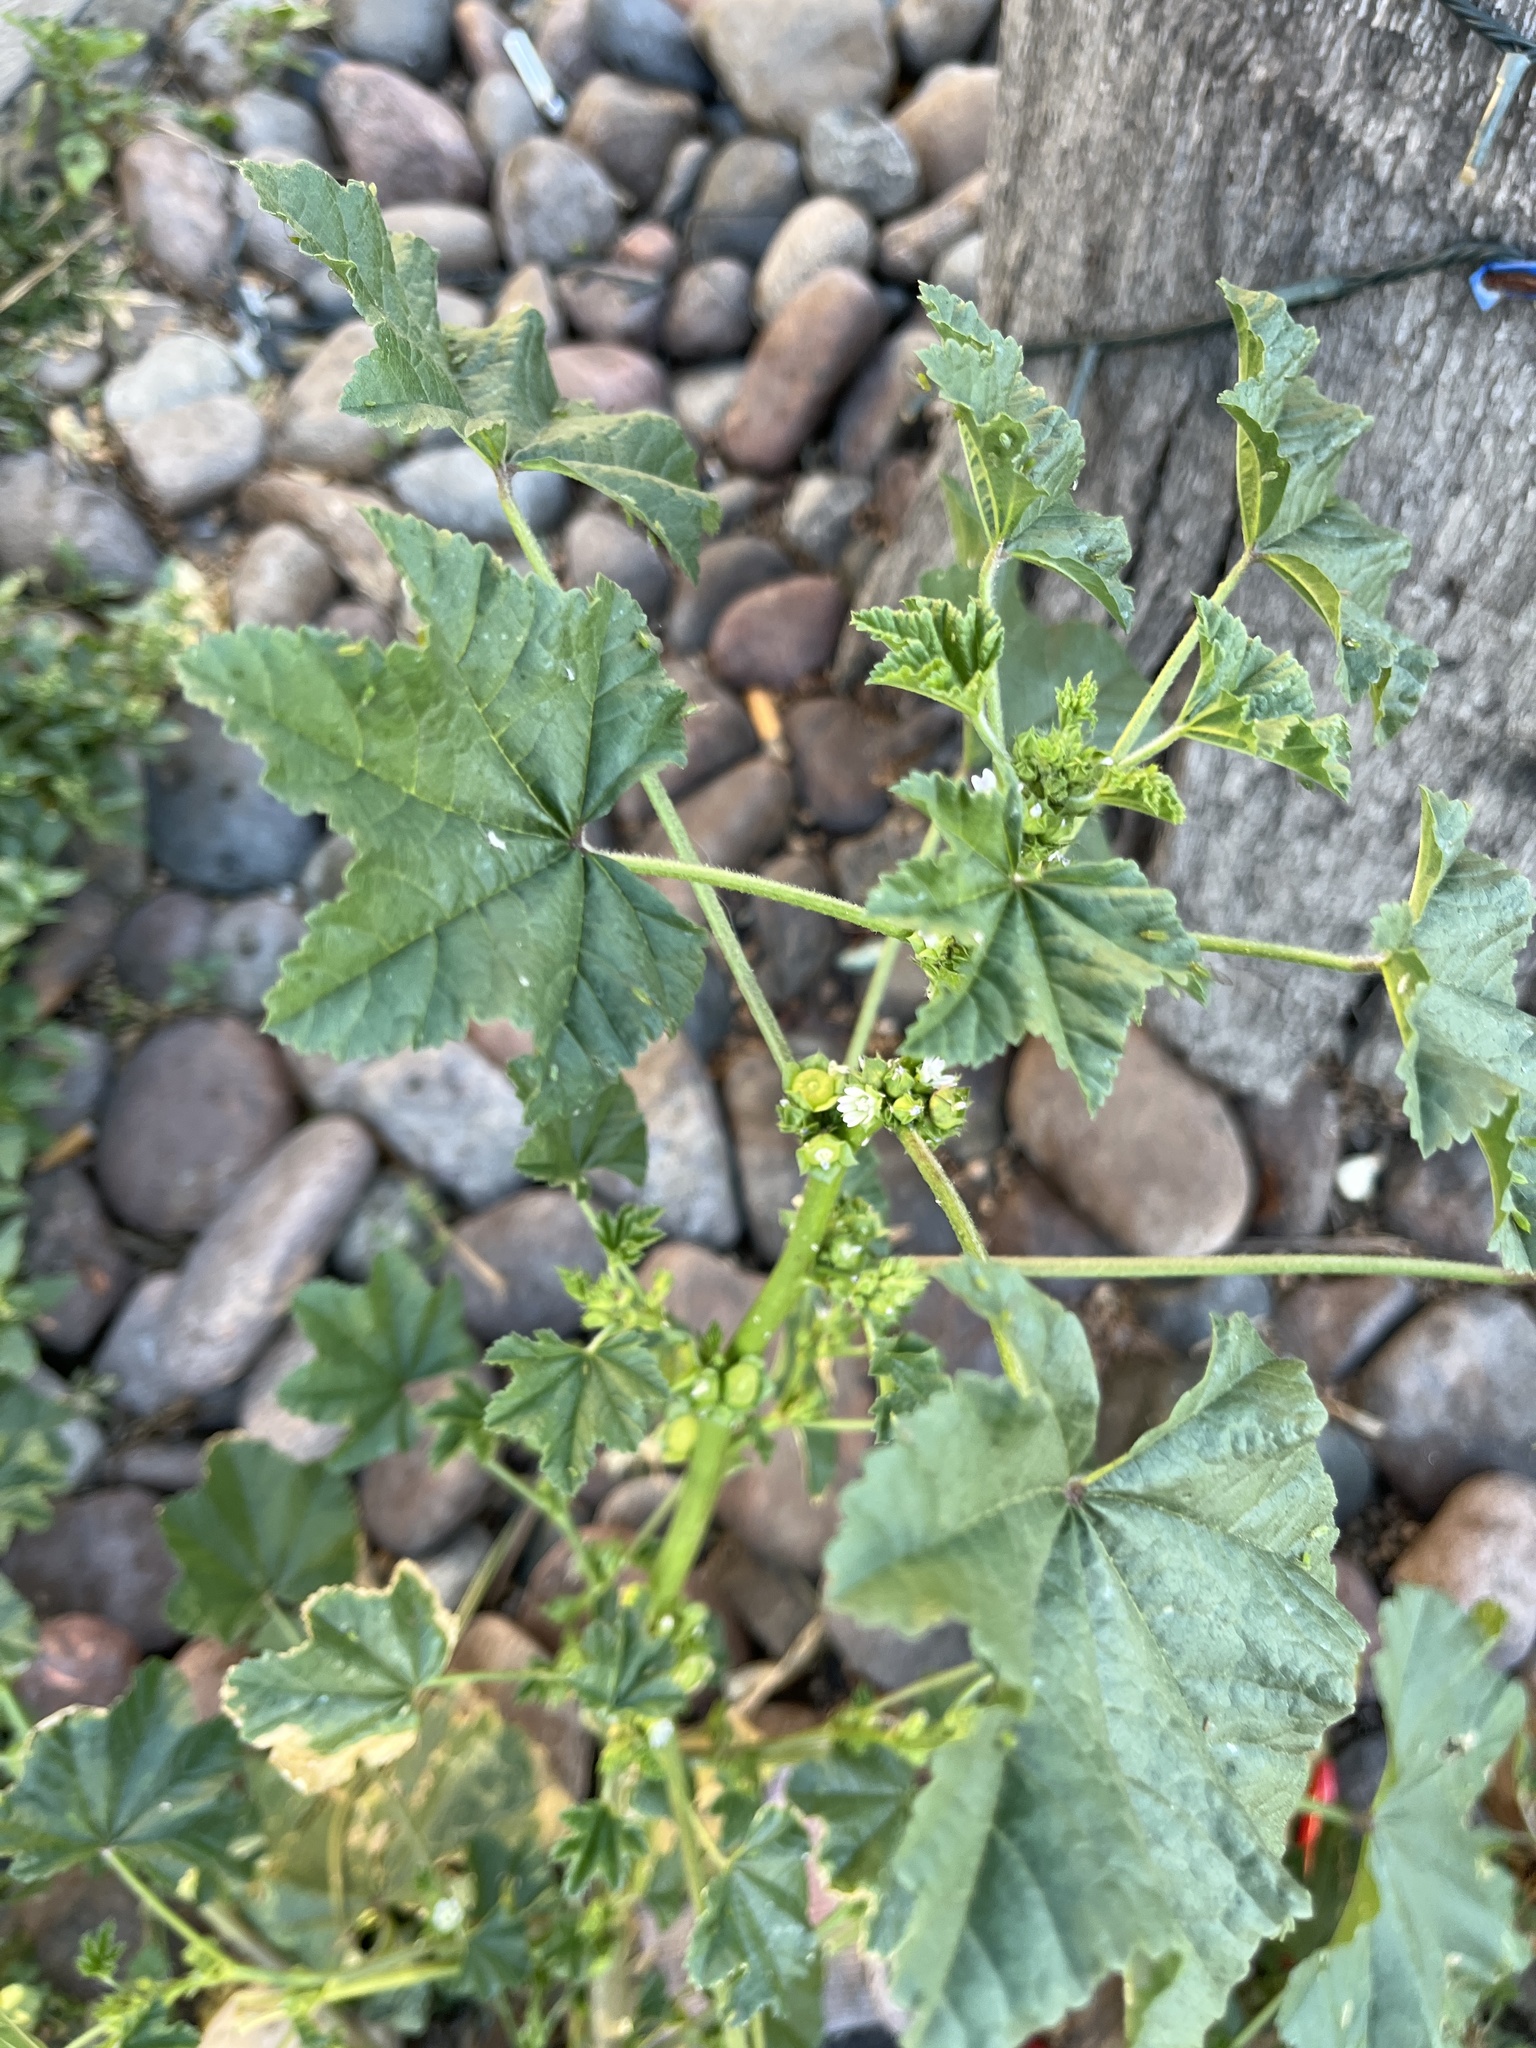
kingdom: Plantae
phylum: Tracheophyta
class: Magnoliopsida
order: Malvales
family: Malvaceae
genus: Malva
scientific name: Malva parviflora
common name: Least mallow
